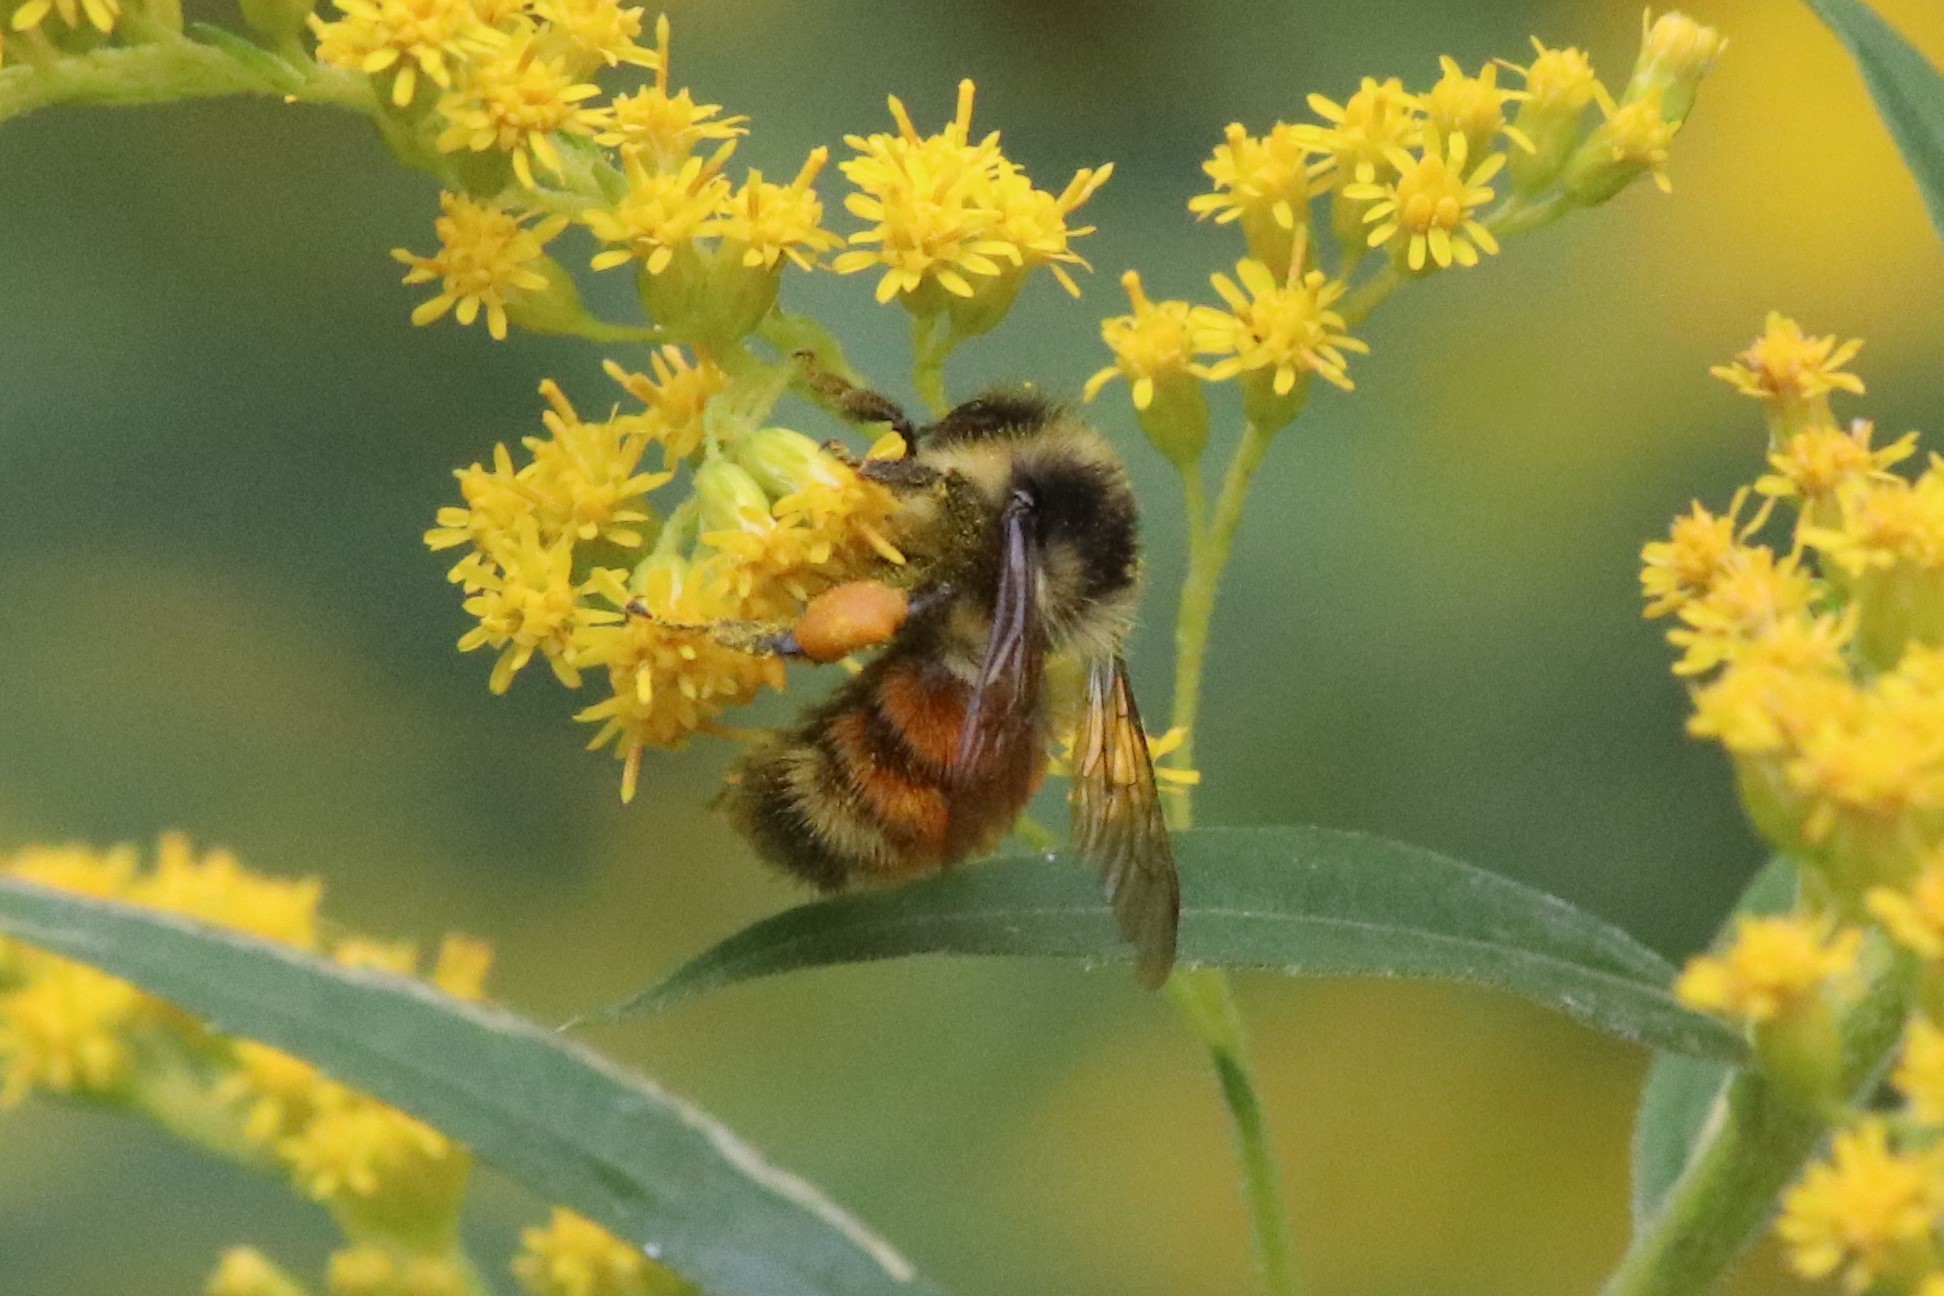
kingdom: Animalia
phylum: Arthropoda
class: Insecta
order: Hymenoptera
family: Apidae
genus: Bombus
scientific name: Bombus ternarius
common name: Tri-colored bumble bee
